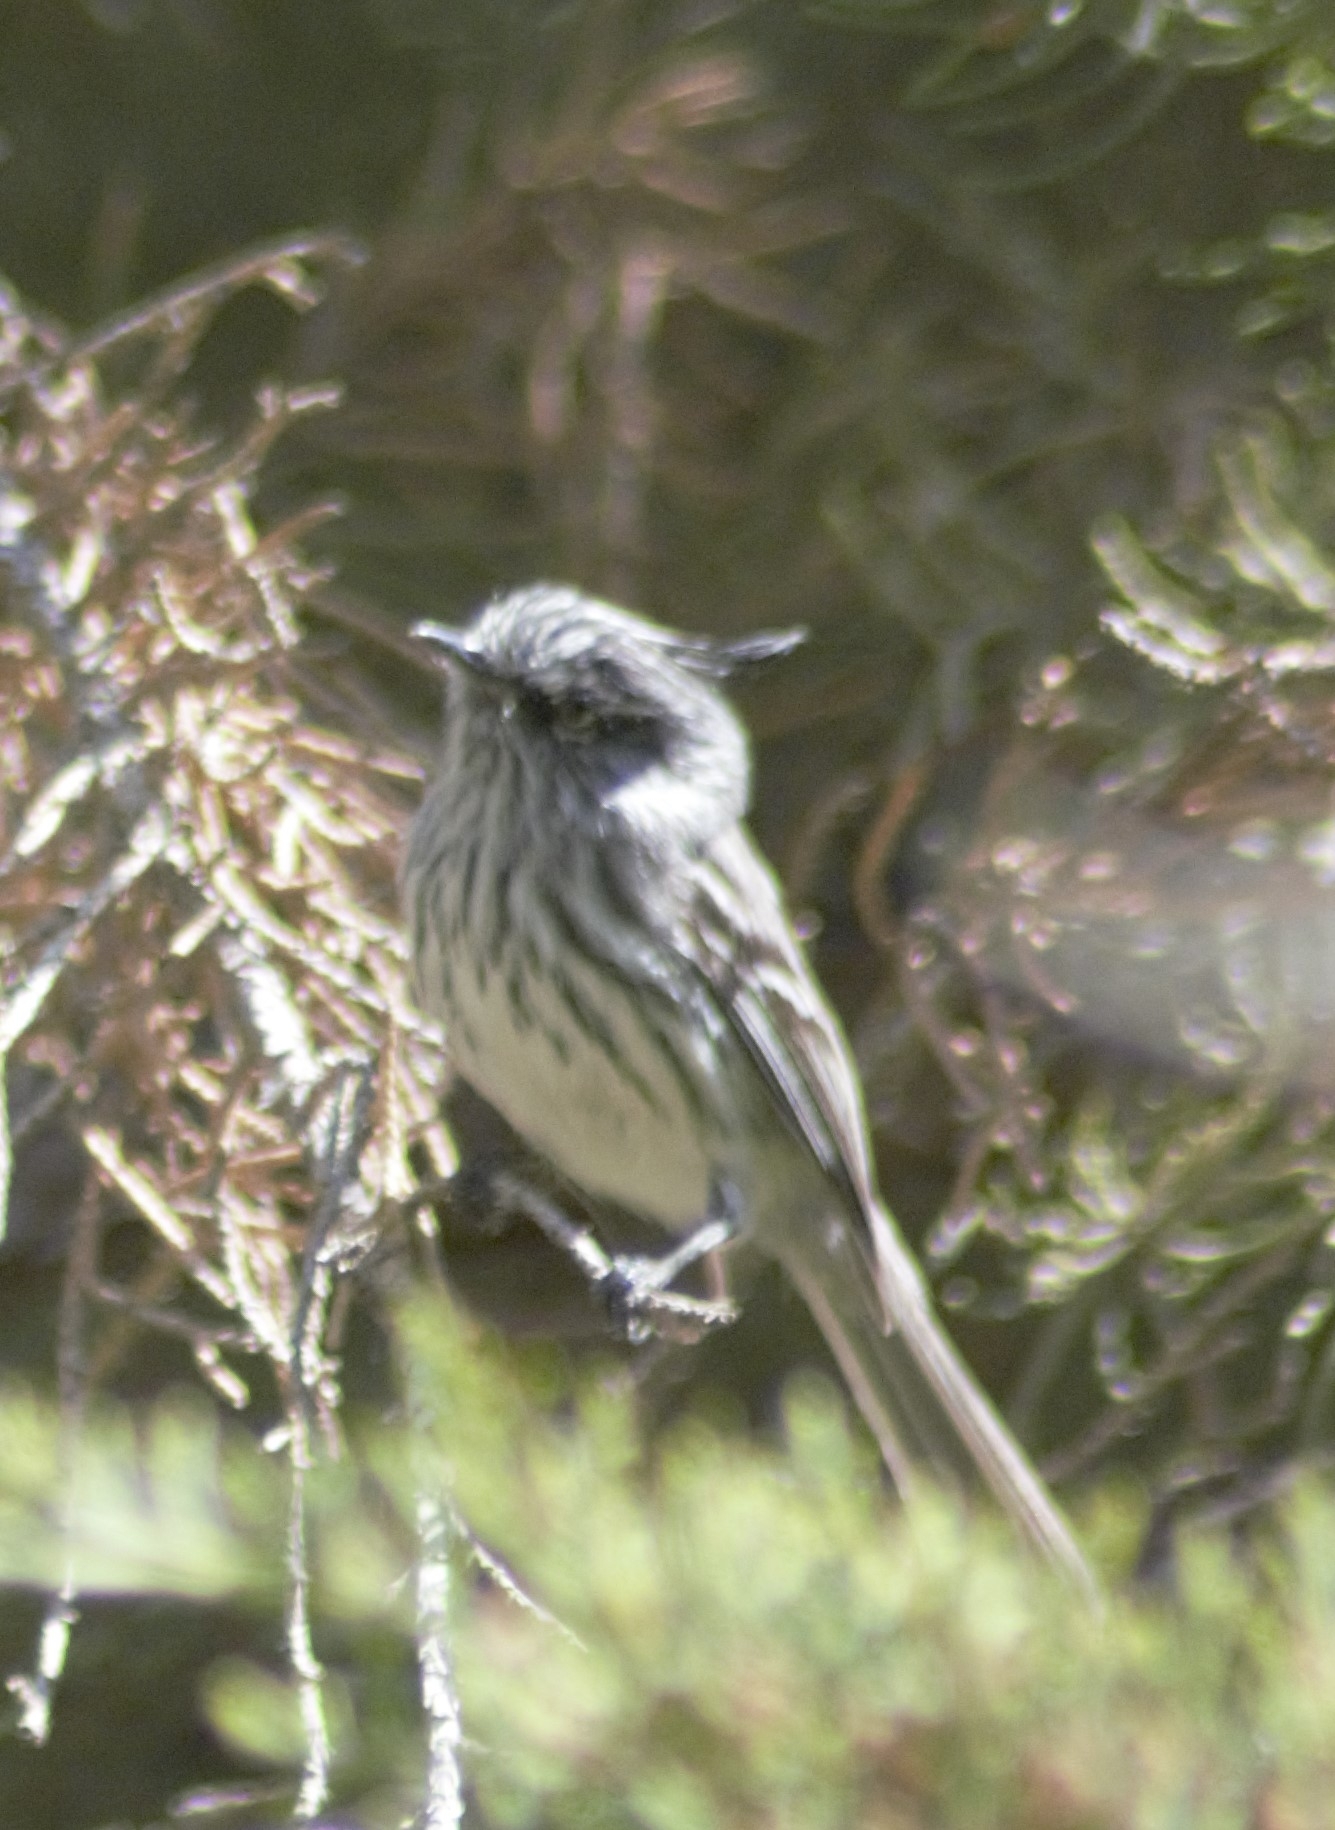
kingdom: Animalia
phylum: Chordata
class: Aves
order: Passeriformes
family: Tyrannidae
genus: Anairetes
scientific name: Anairetes parulus
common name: Tufted tit-tyrant
